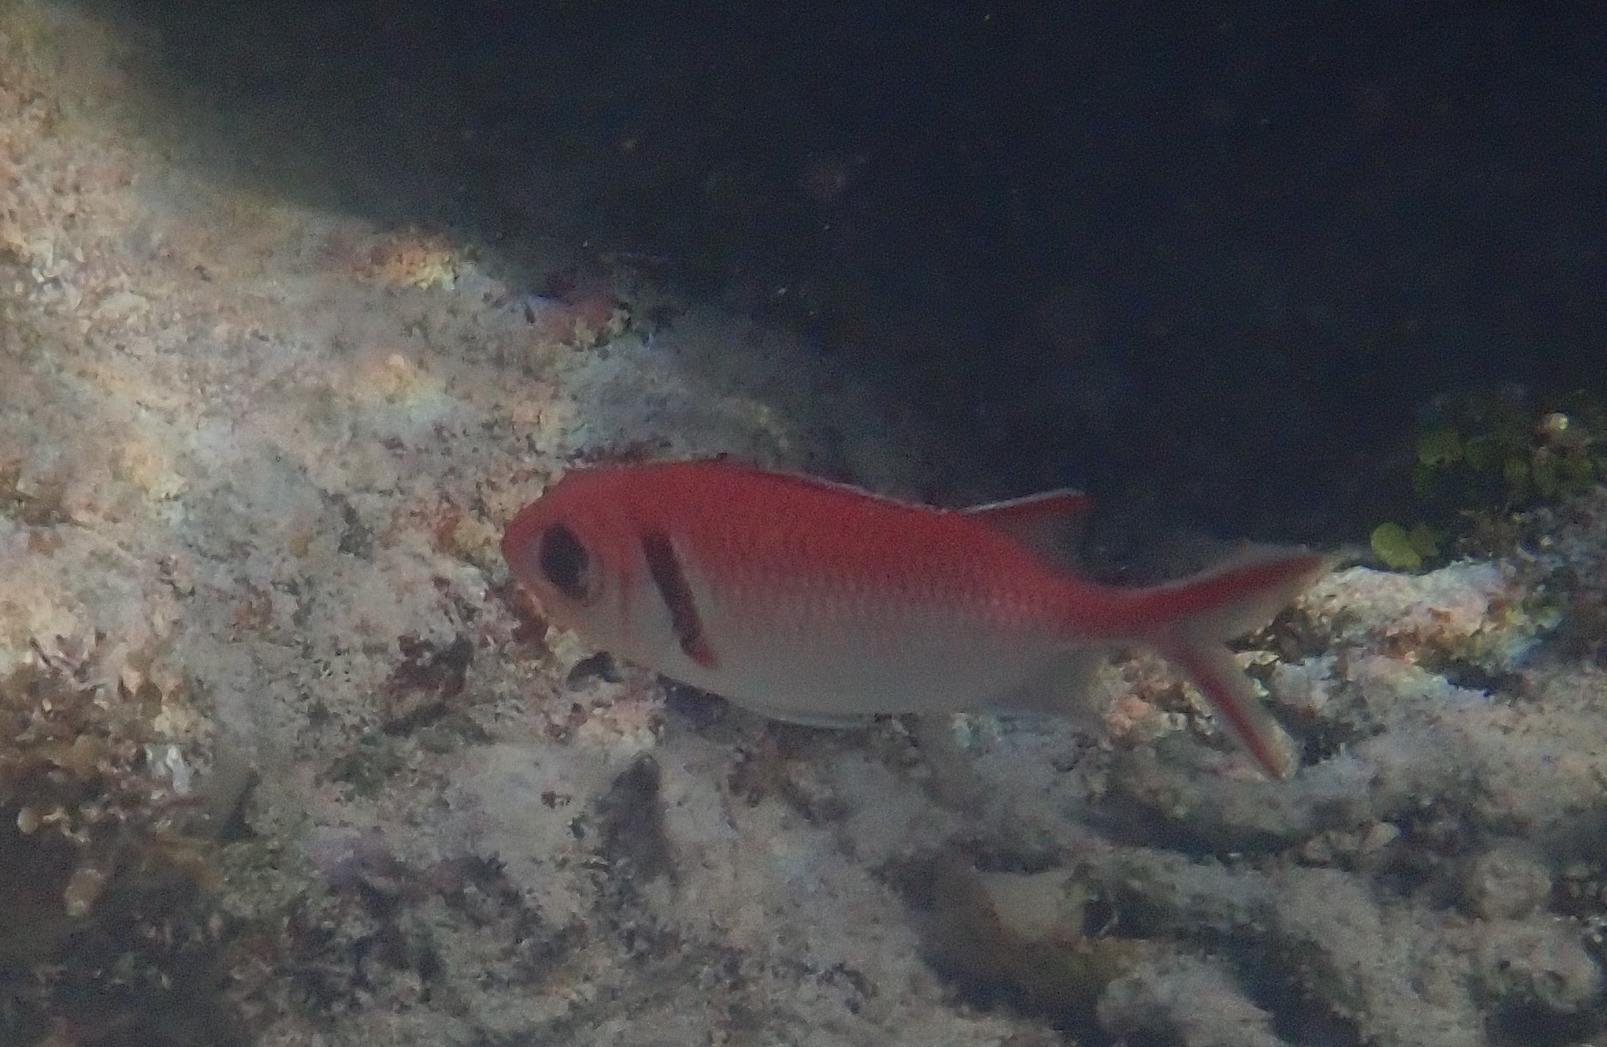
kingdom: Animalia
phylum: Chordata
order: Beryciformes
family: Holocentridae
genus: Myripristis
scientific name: Myripristis jacobus
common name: Blackbar soldierfish
